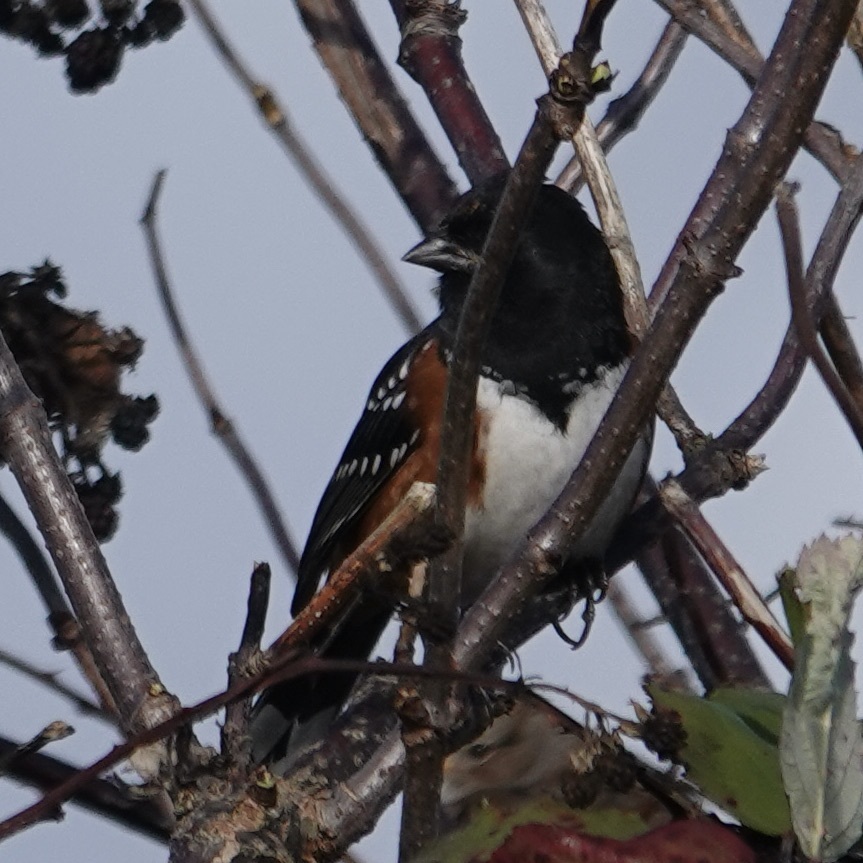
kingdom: Animalia
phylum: Chordata
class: Aves
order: Passeriformes
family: Passerellidae
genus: Pipilo
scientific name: Pipilo maculatus
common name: Spotted towhee
